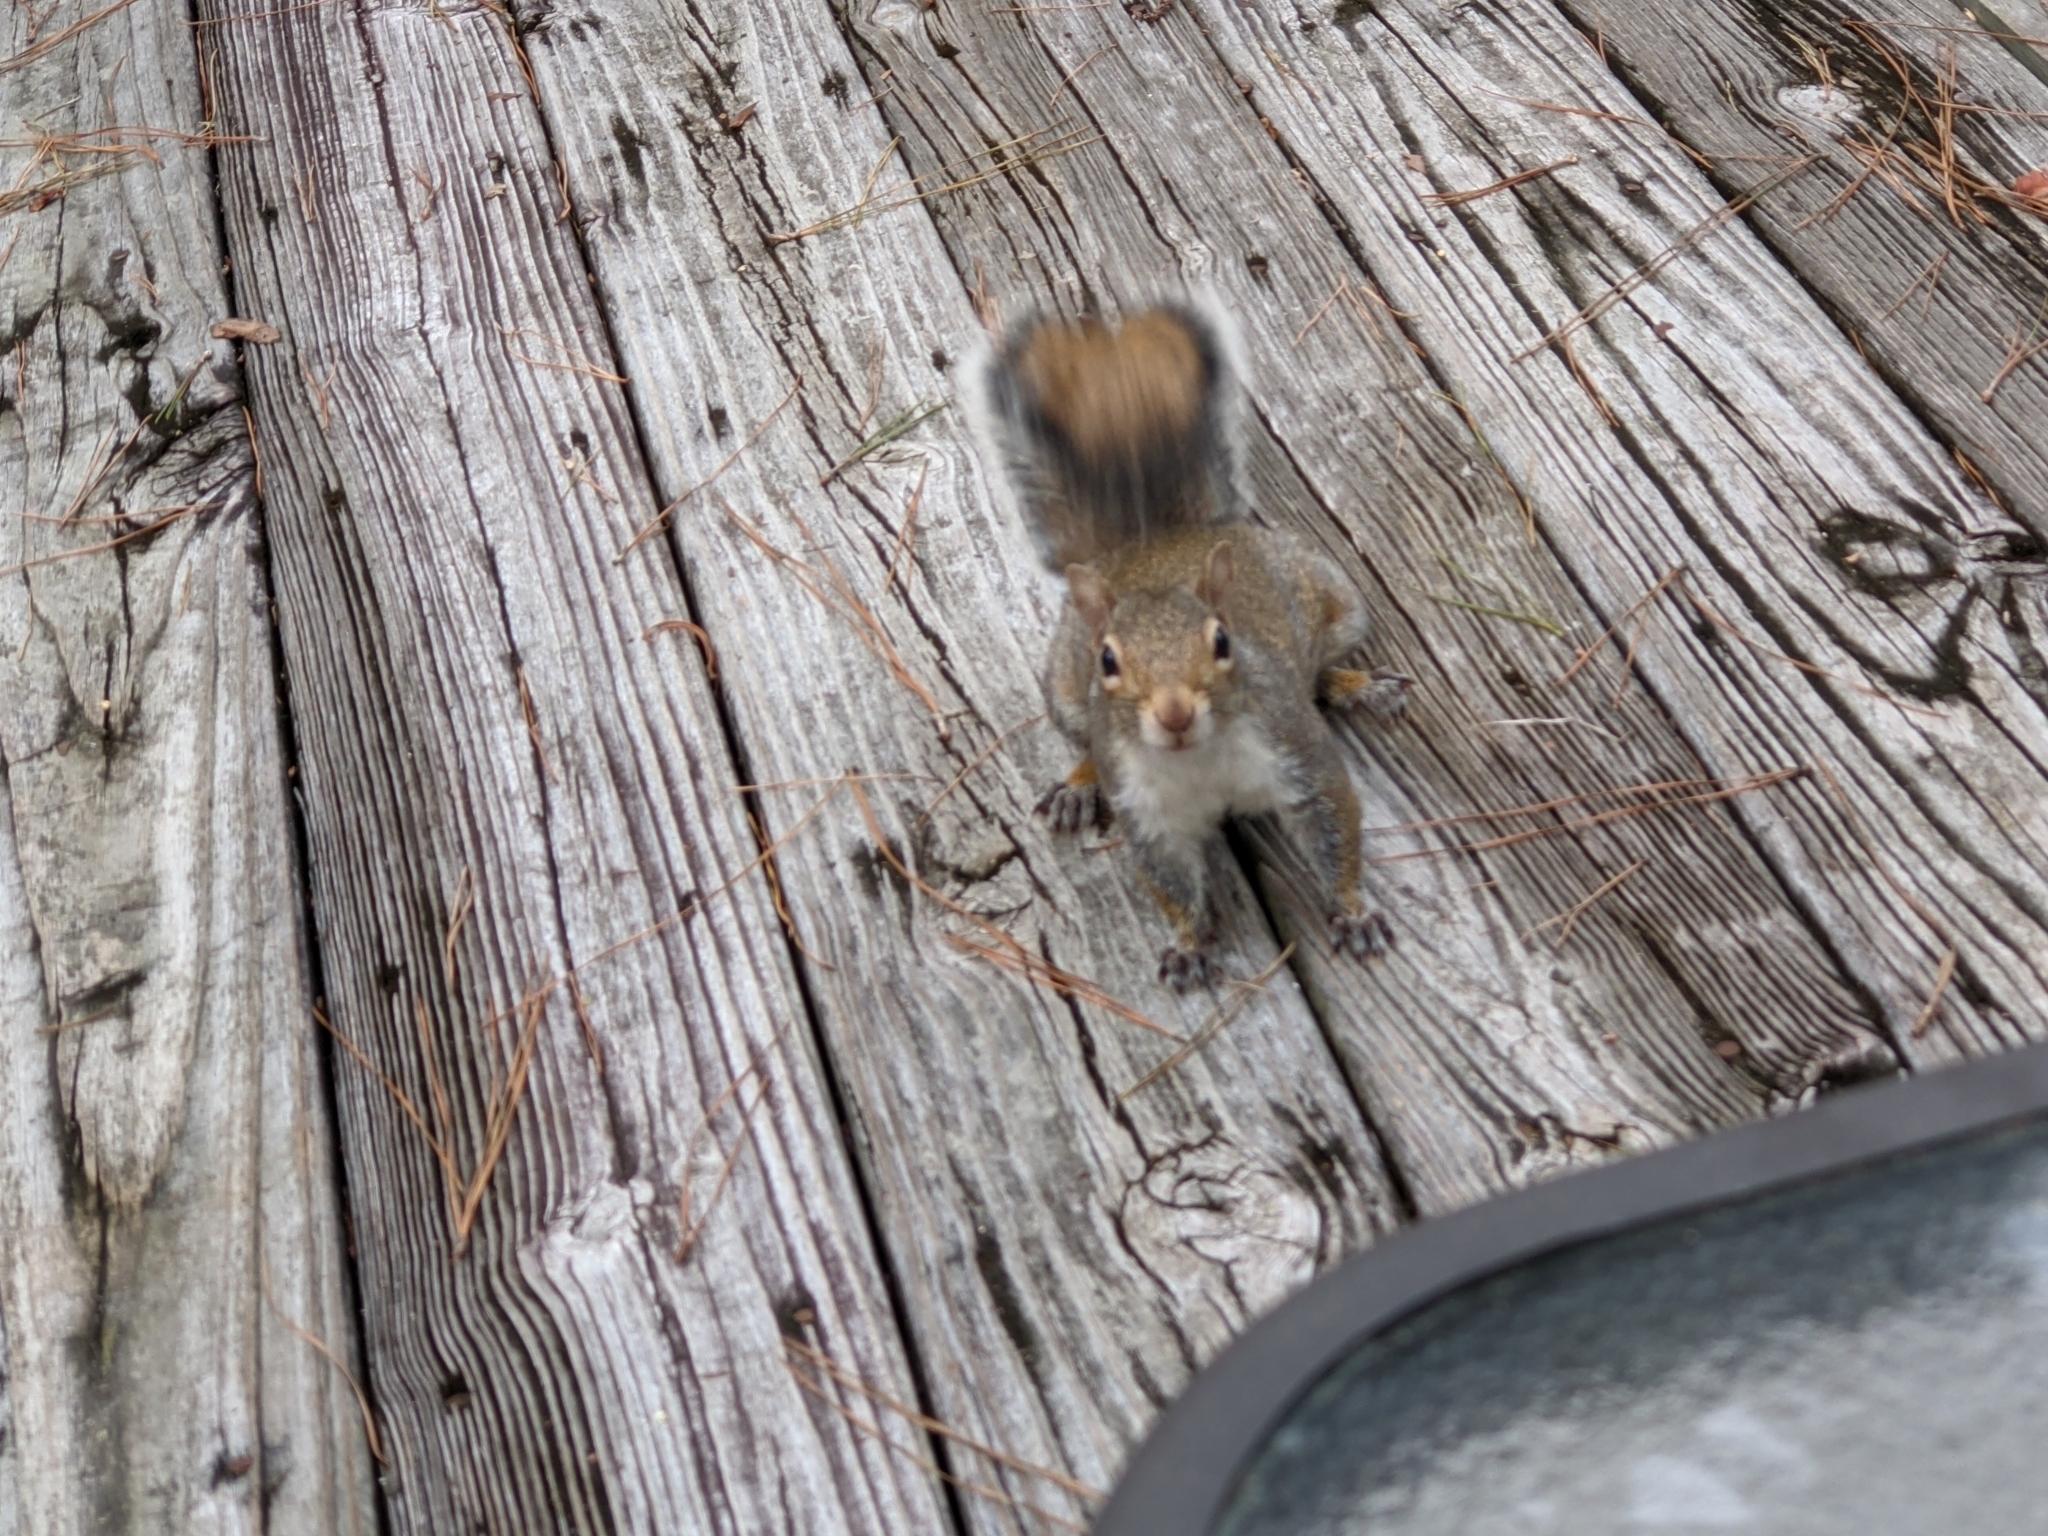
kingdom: Animalia
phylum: Chordata
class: Mammalia
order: Rodentia
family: Sciuridae
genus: Sciurus
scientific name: Sciurus carolinensis
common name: Eastern gray squirrel
